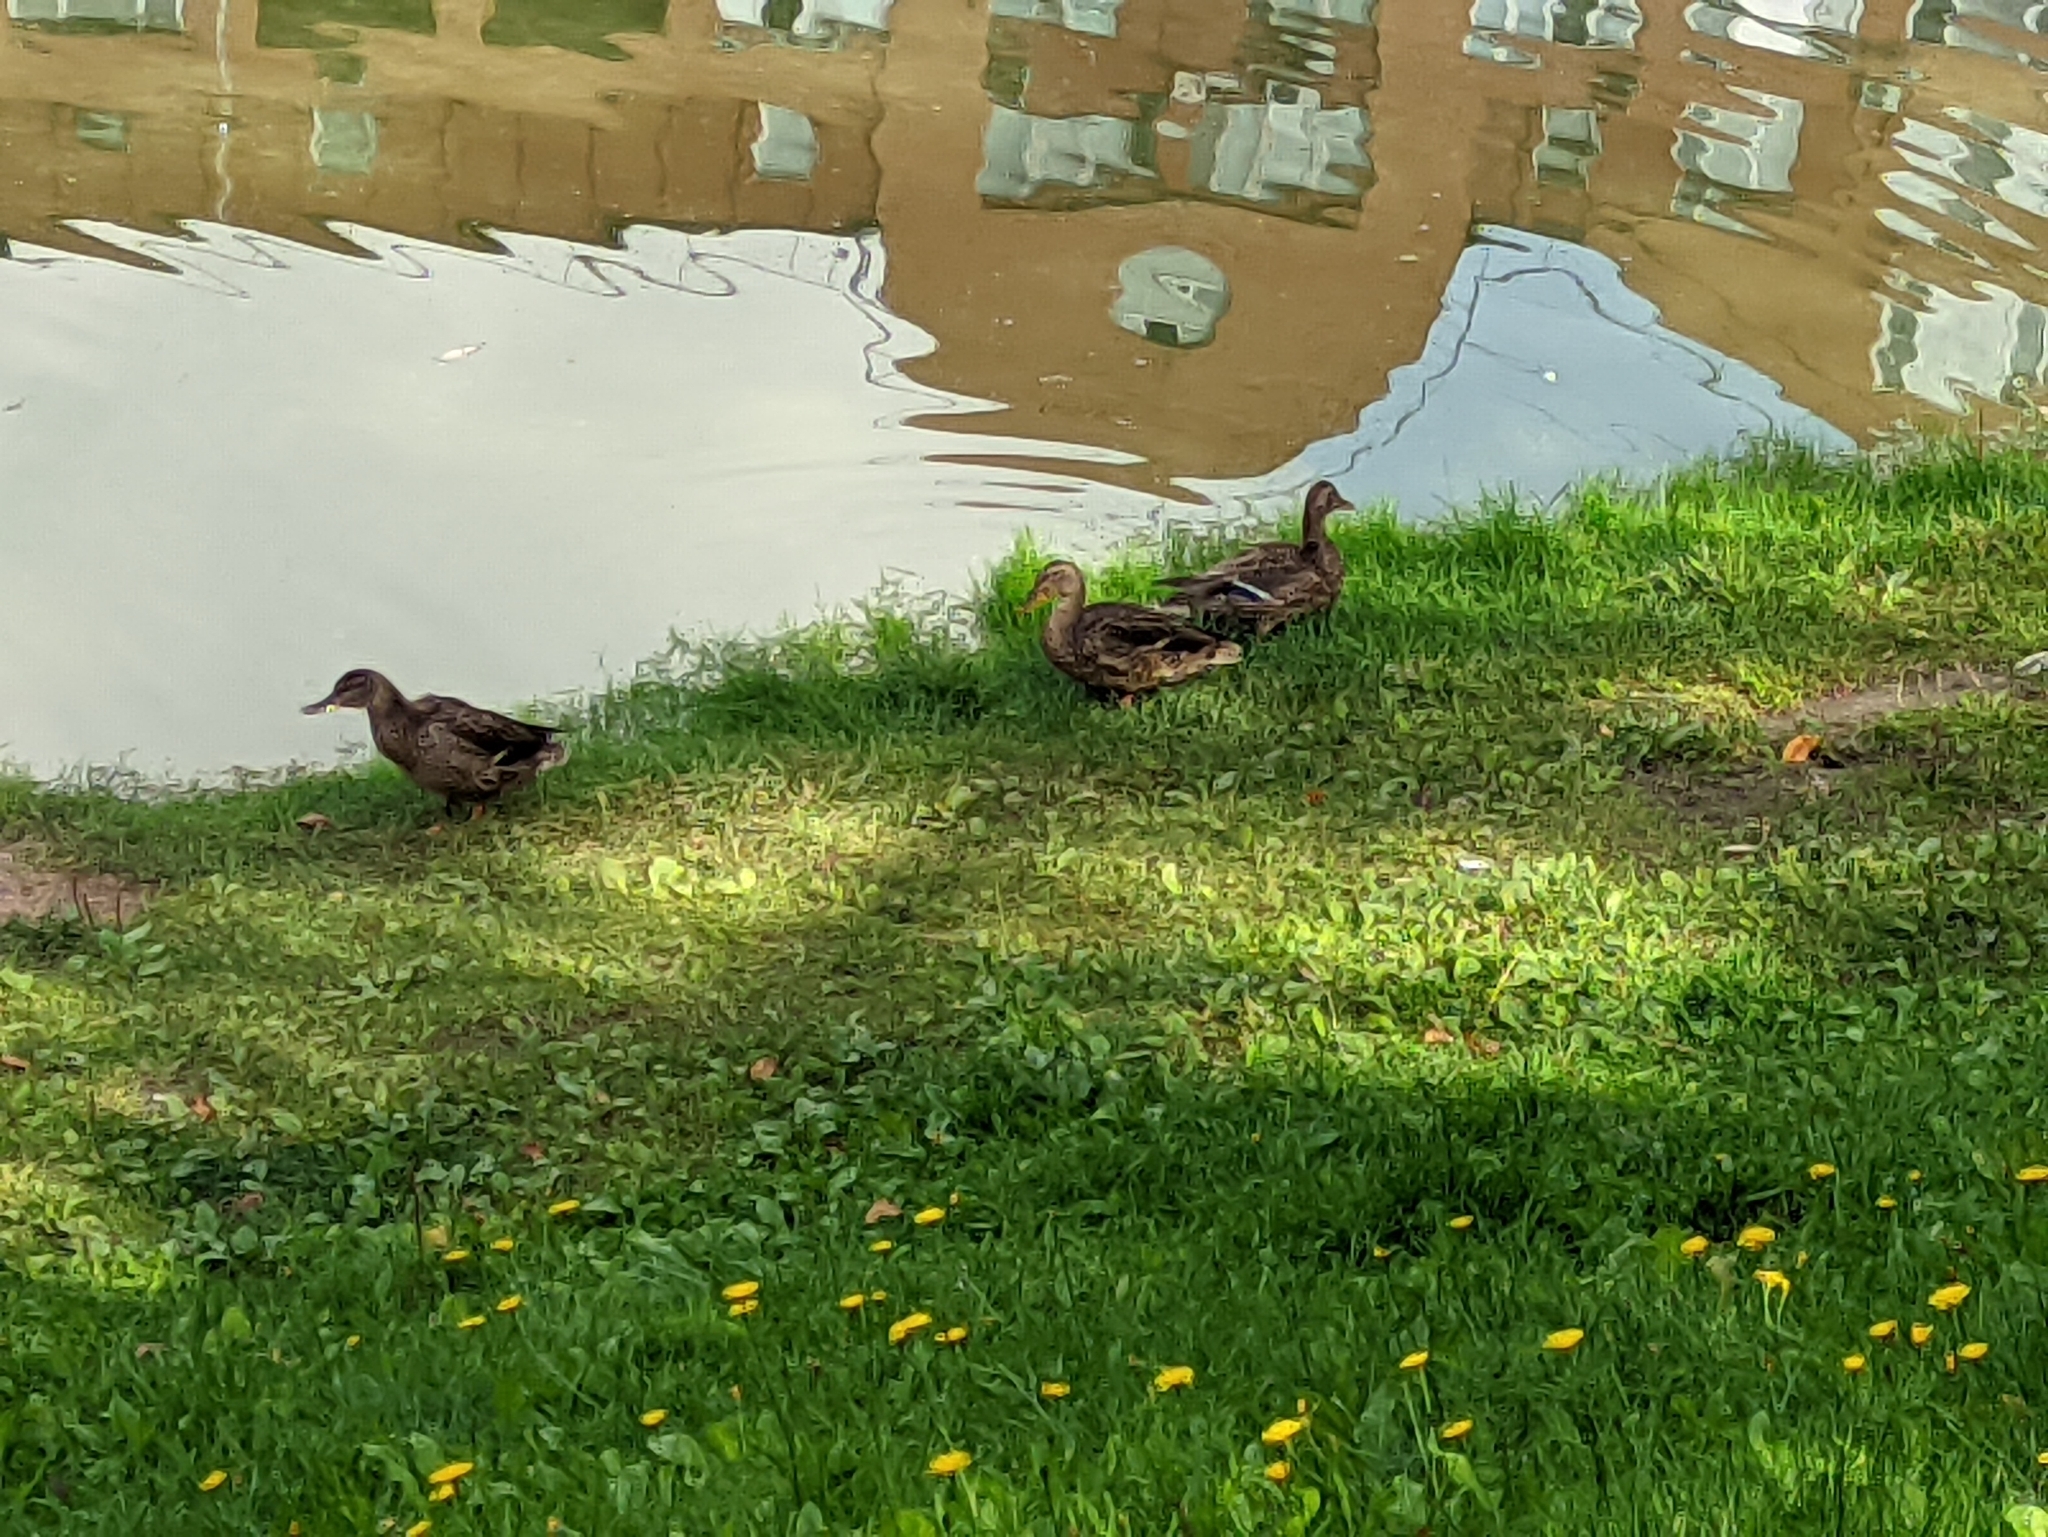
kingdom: Animalia
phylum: Chordata
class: Aves
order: Anseriformes
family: Anatidae
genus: Anas
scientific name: Anas platyrhynchos
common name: Mallard
